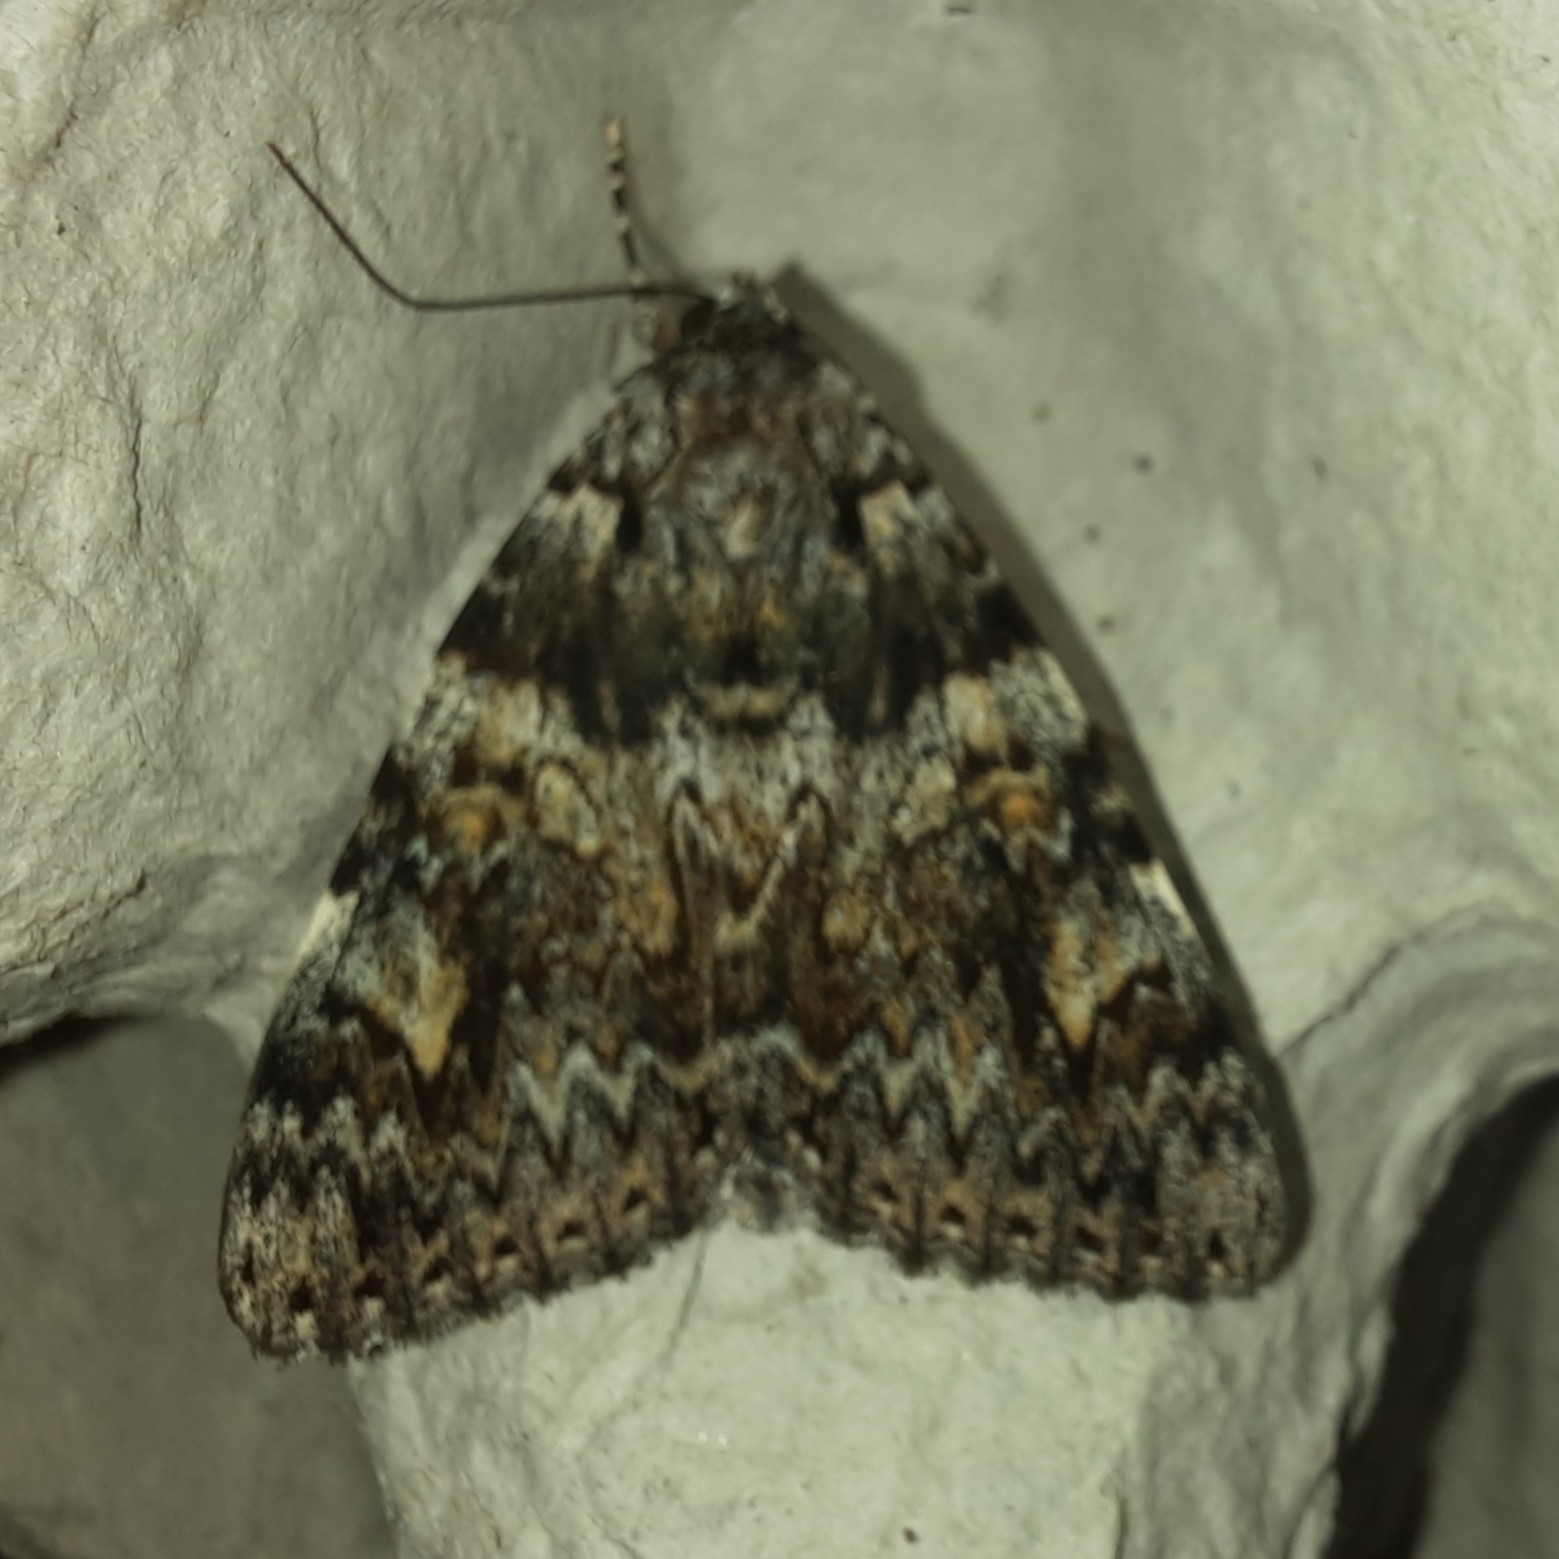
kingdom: Animalia
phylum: Arthropoda
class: Insecta
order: Lepidoptera
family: Erebidae
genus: Catocala
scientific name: Catocala promissa
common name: Light crimson underwing
